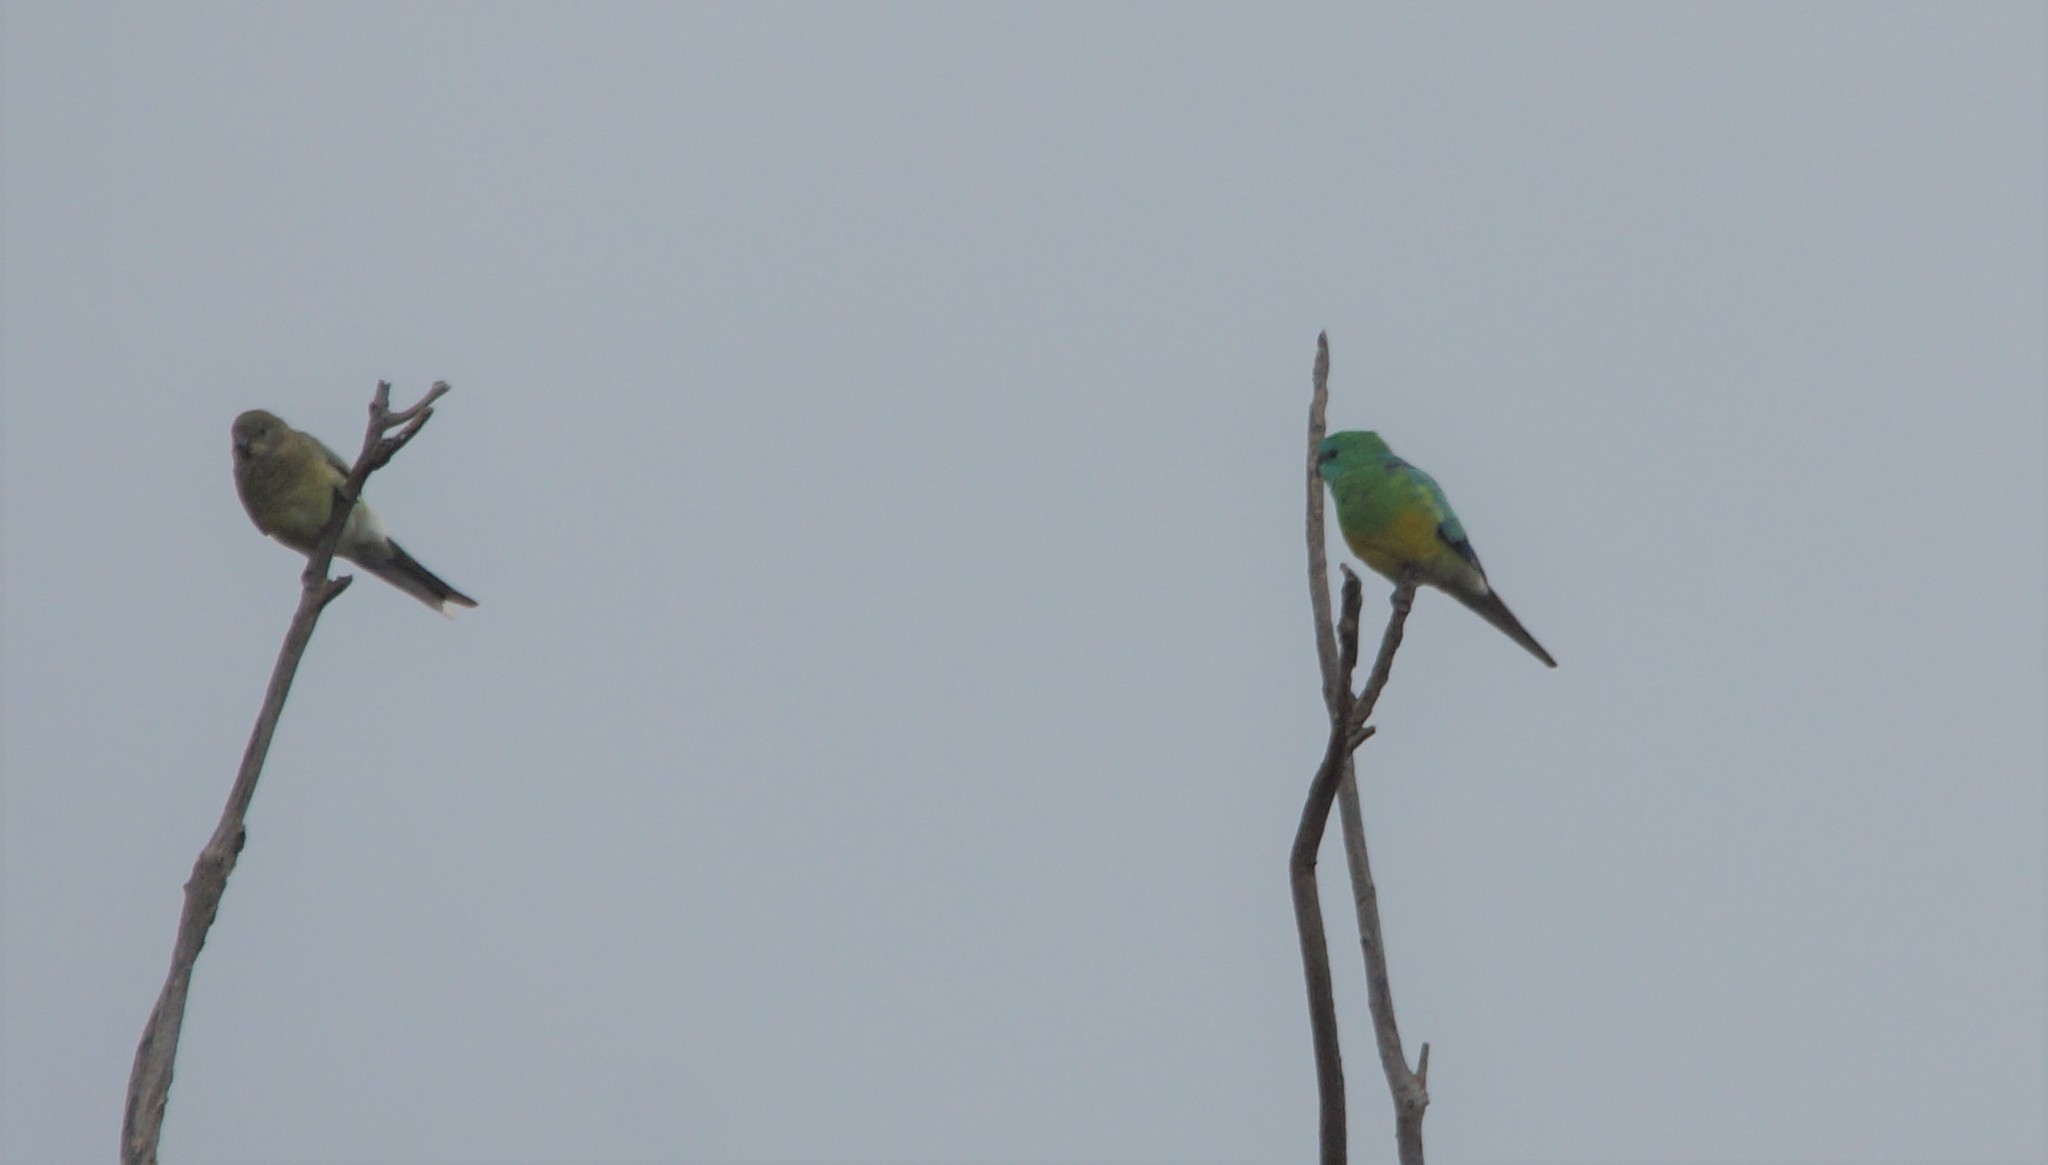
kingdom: Animalia
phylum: Chordata
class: Aves
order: Psittaciformes
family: Psittacidae
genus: Psephotus
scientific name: Psephotus haematonotus
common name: Red-rumped parrot
